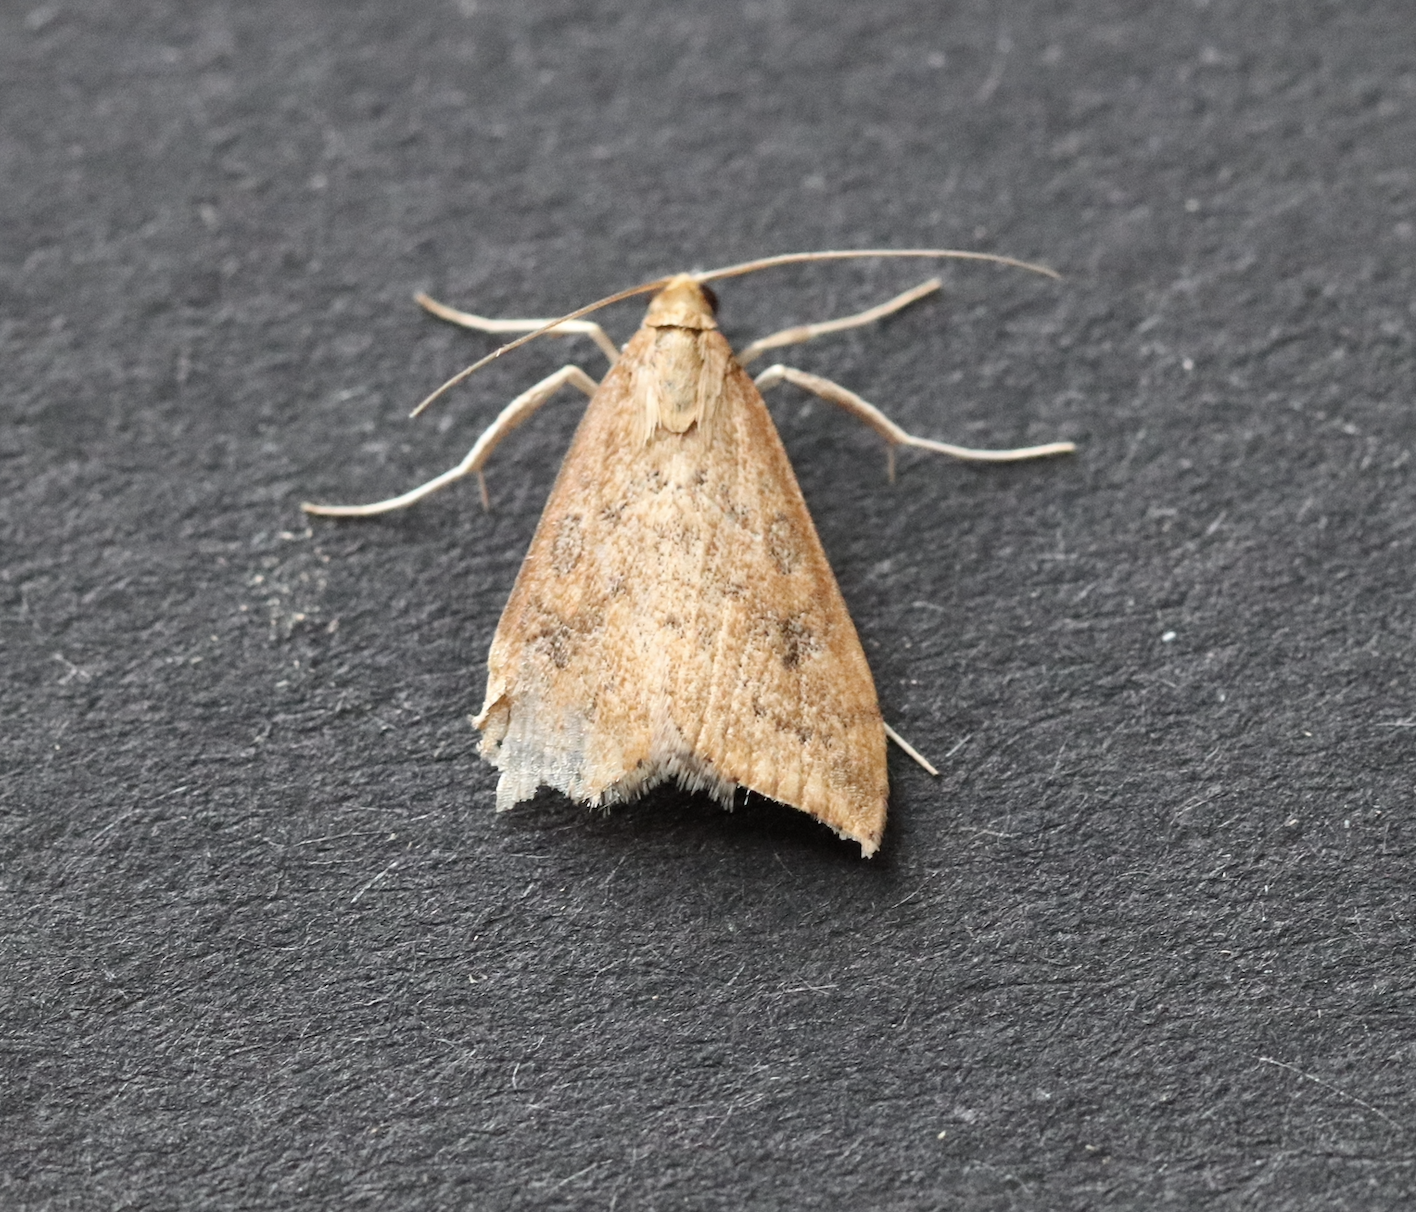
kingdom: Animalia
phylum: Arthropoda
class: Insecta
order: Lepidoptera
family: Crambidae
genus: Udea
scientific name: Udea ferrugalis
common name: Rusty dot
